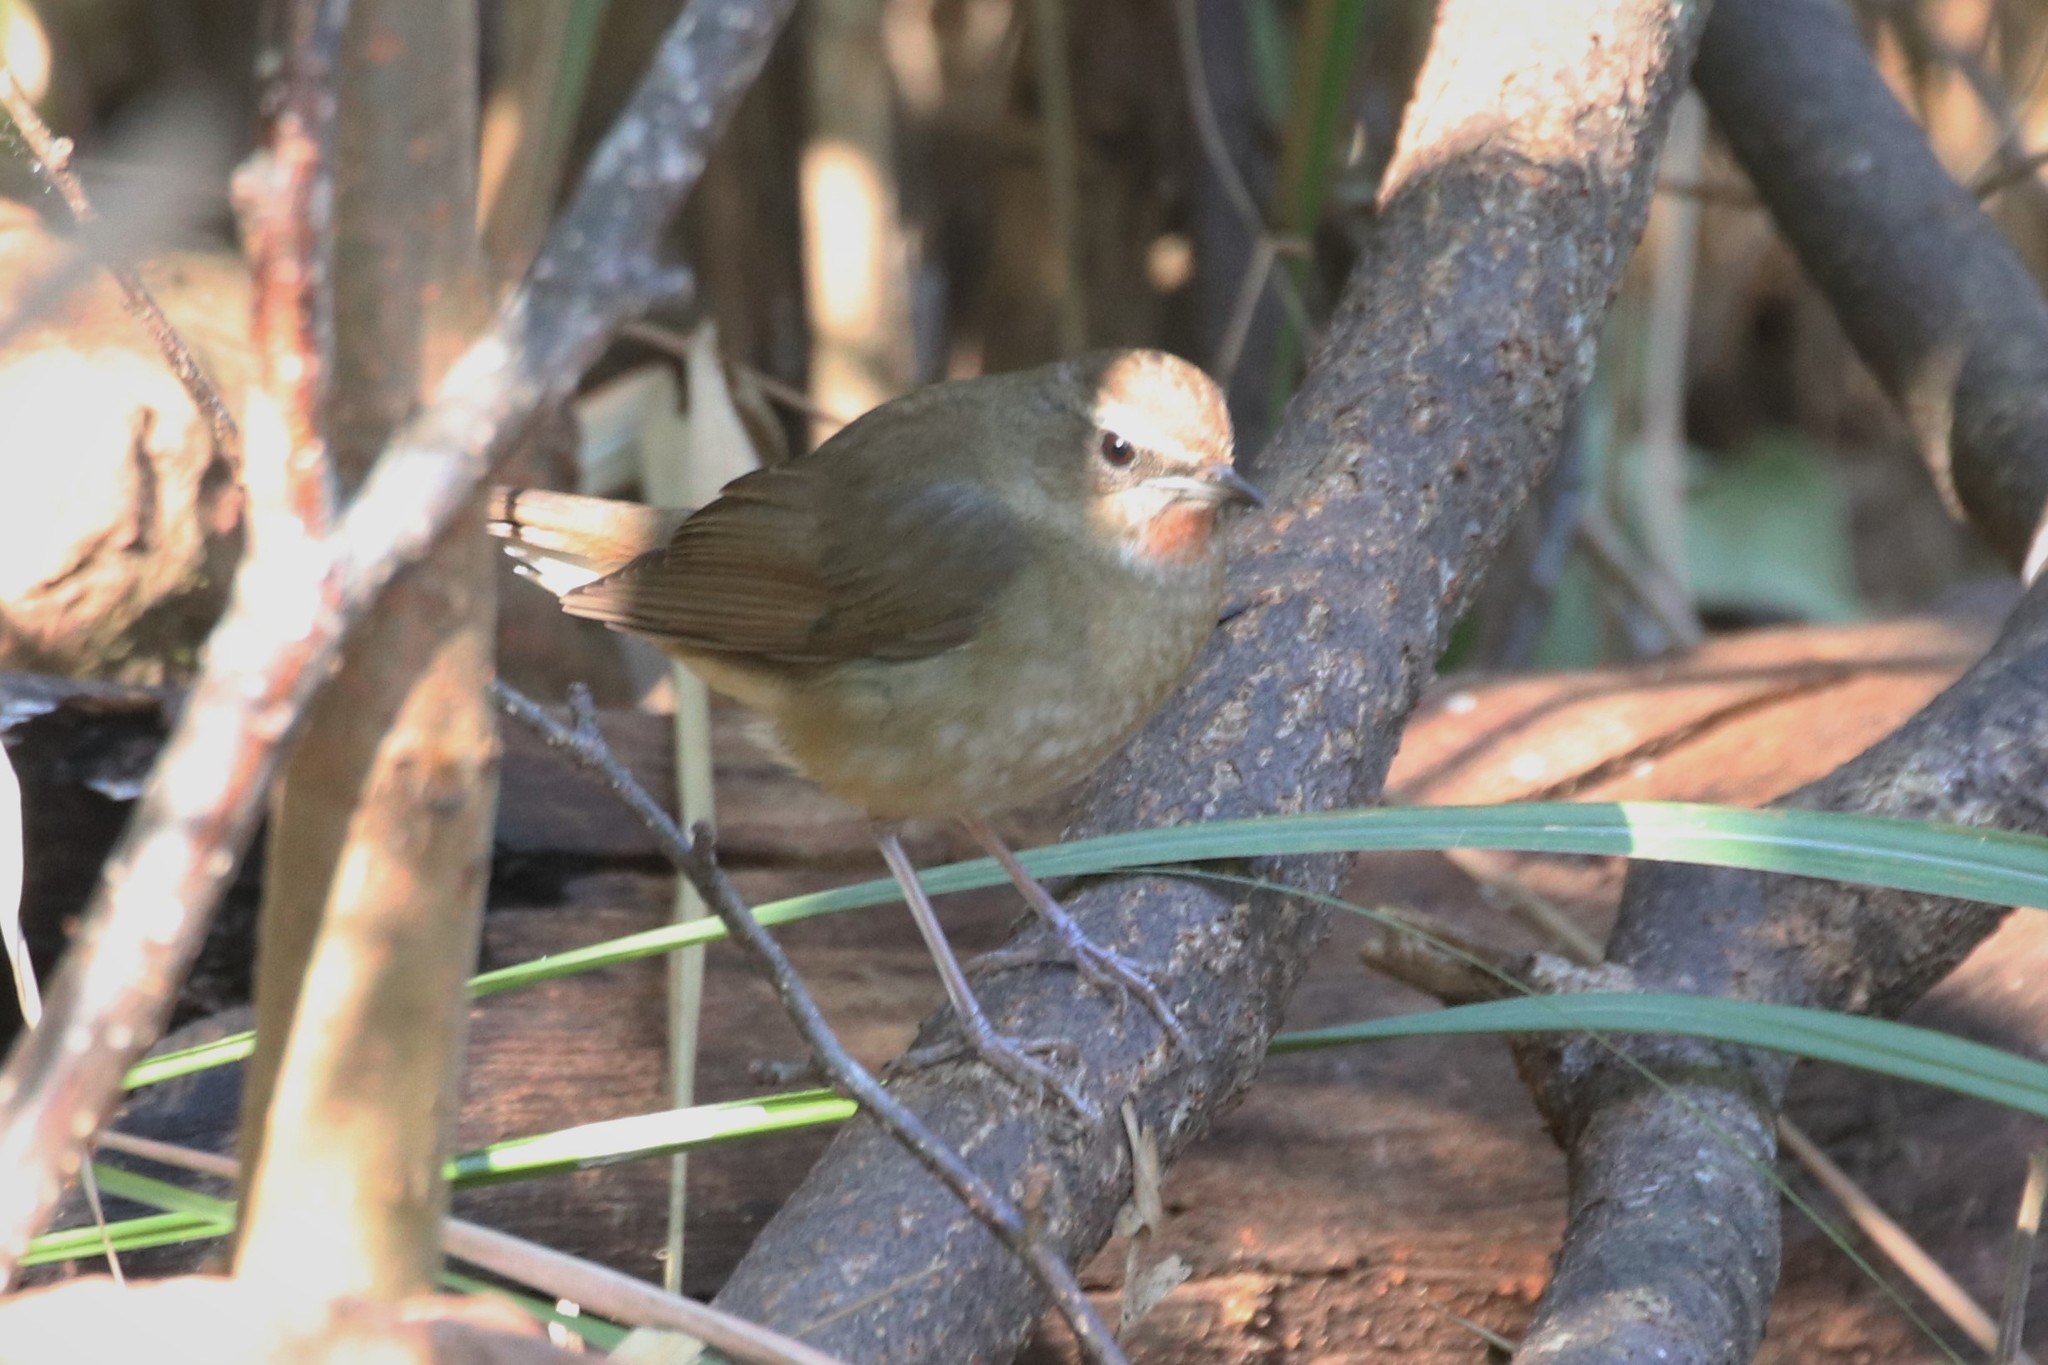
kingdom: Animalia
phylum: Chordata
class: Aves
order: Passeriformes
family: Muscicapidae
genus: Luscinia
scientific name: Luscinia calliope
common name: Siberian rubythroat
